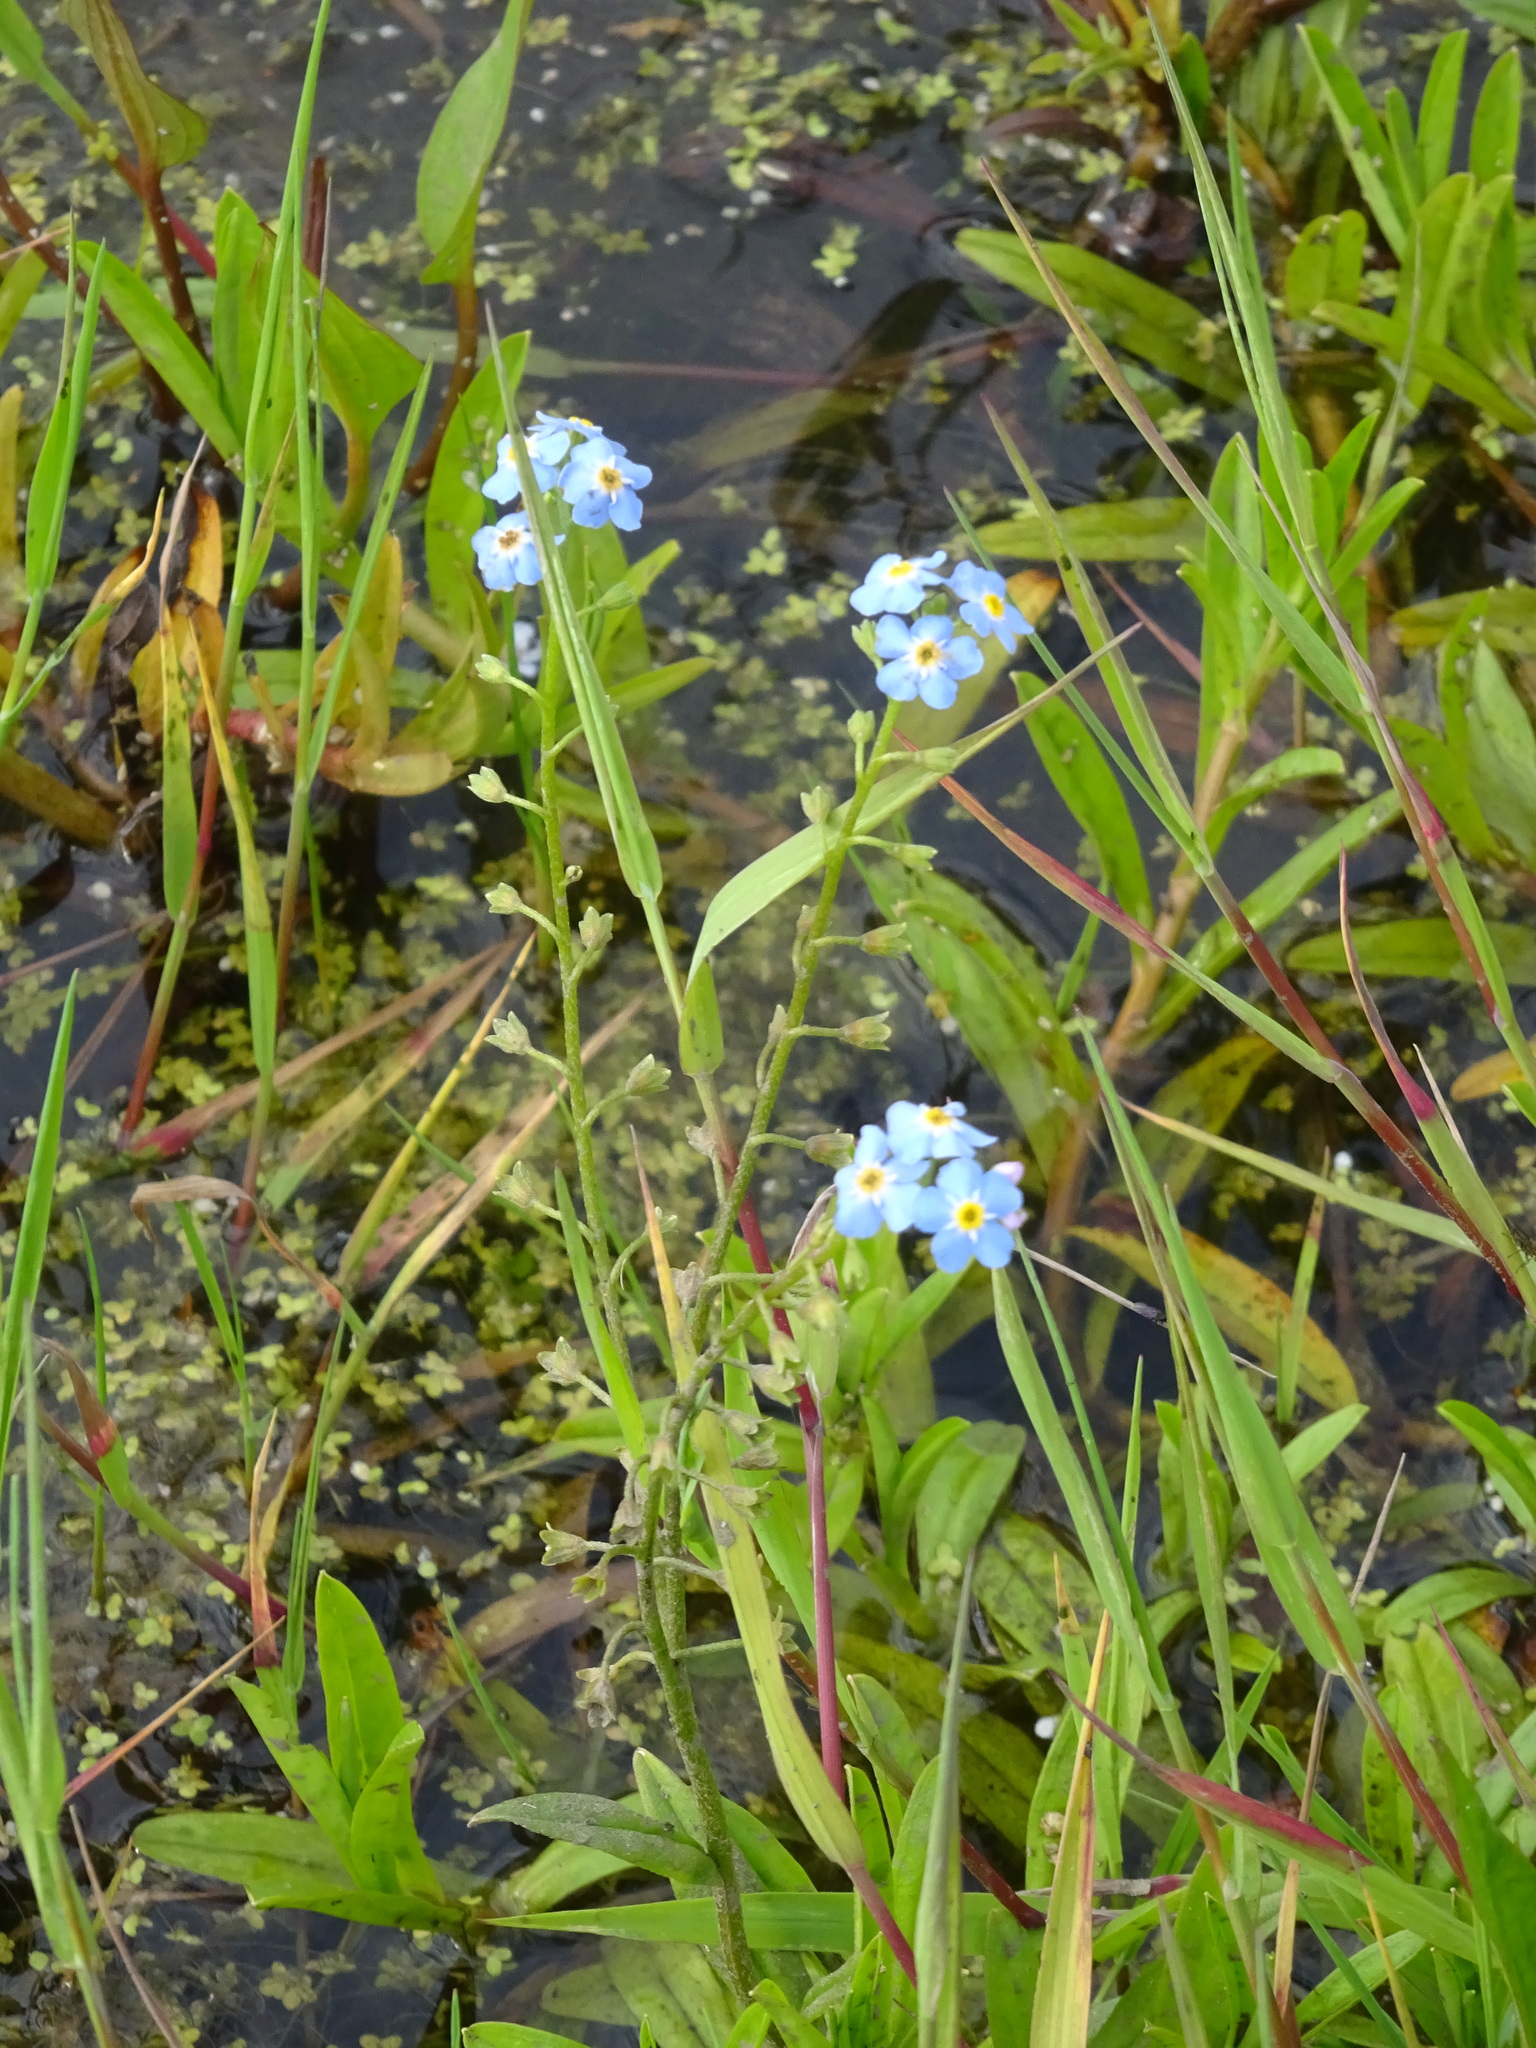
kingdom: Plantae
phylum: Tracheophyta
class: Magnoliopsida
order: Boraginales
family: Boraginaceae
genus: Myosotis
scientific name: Myosotis scorpioides
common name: Water forget-me-not
